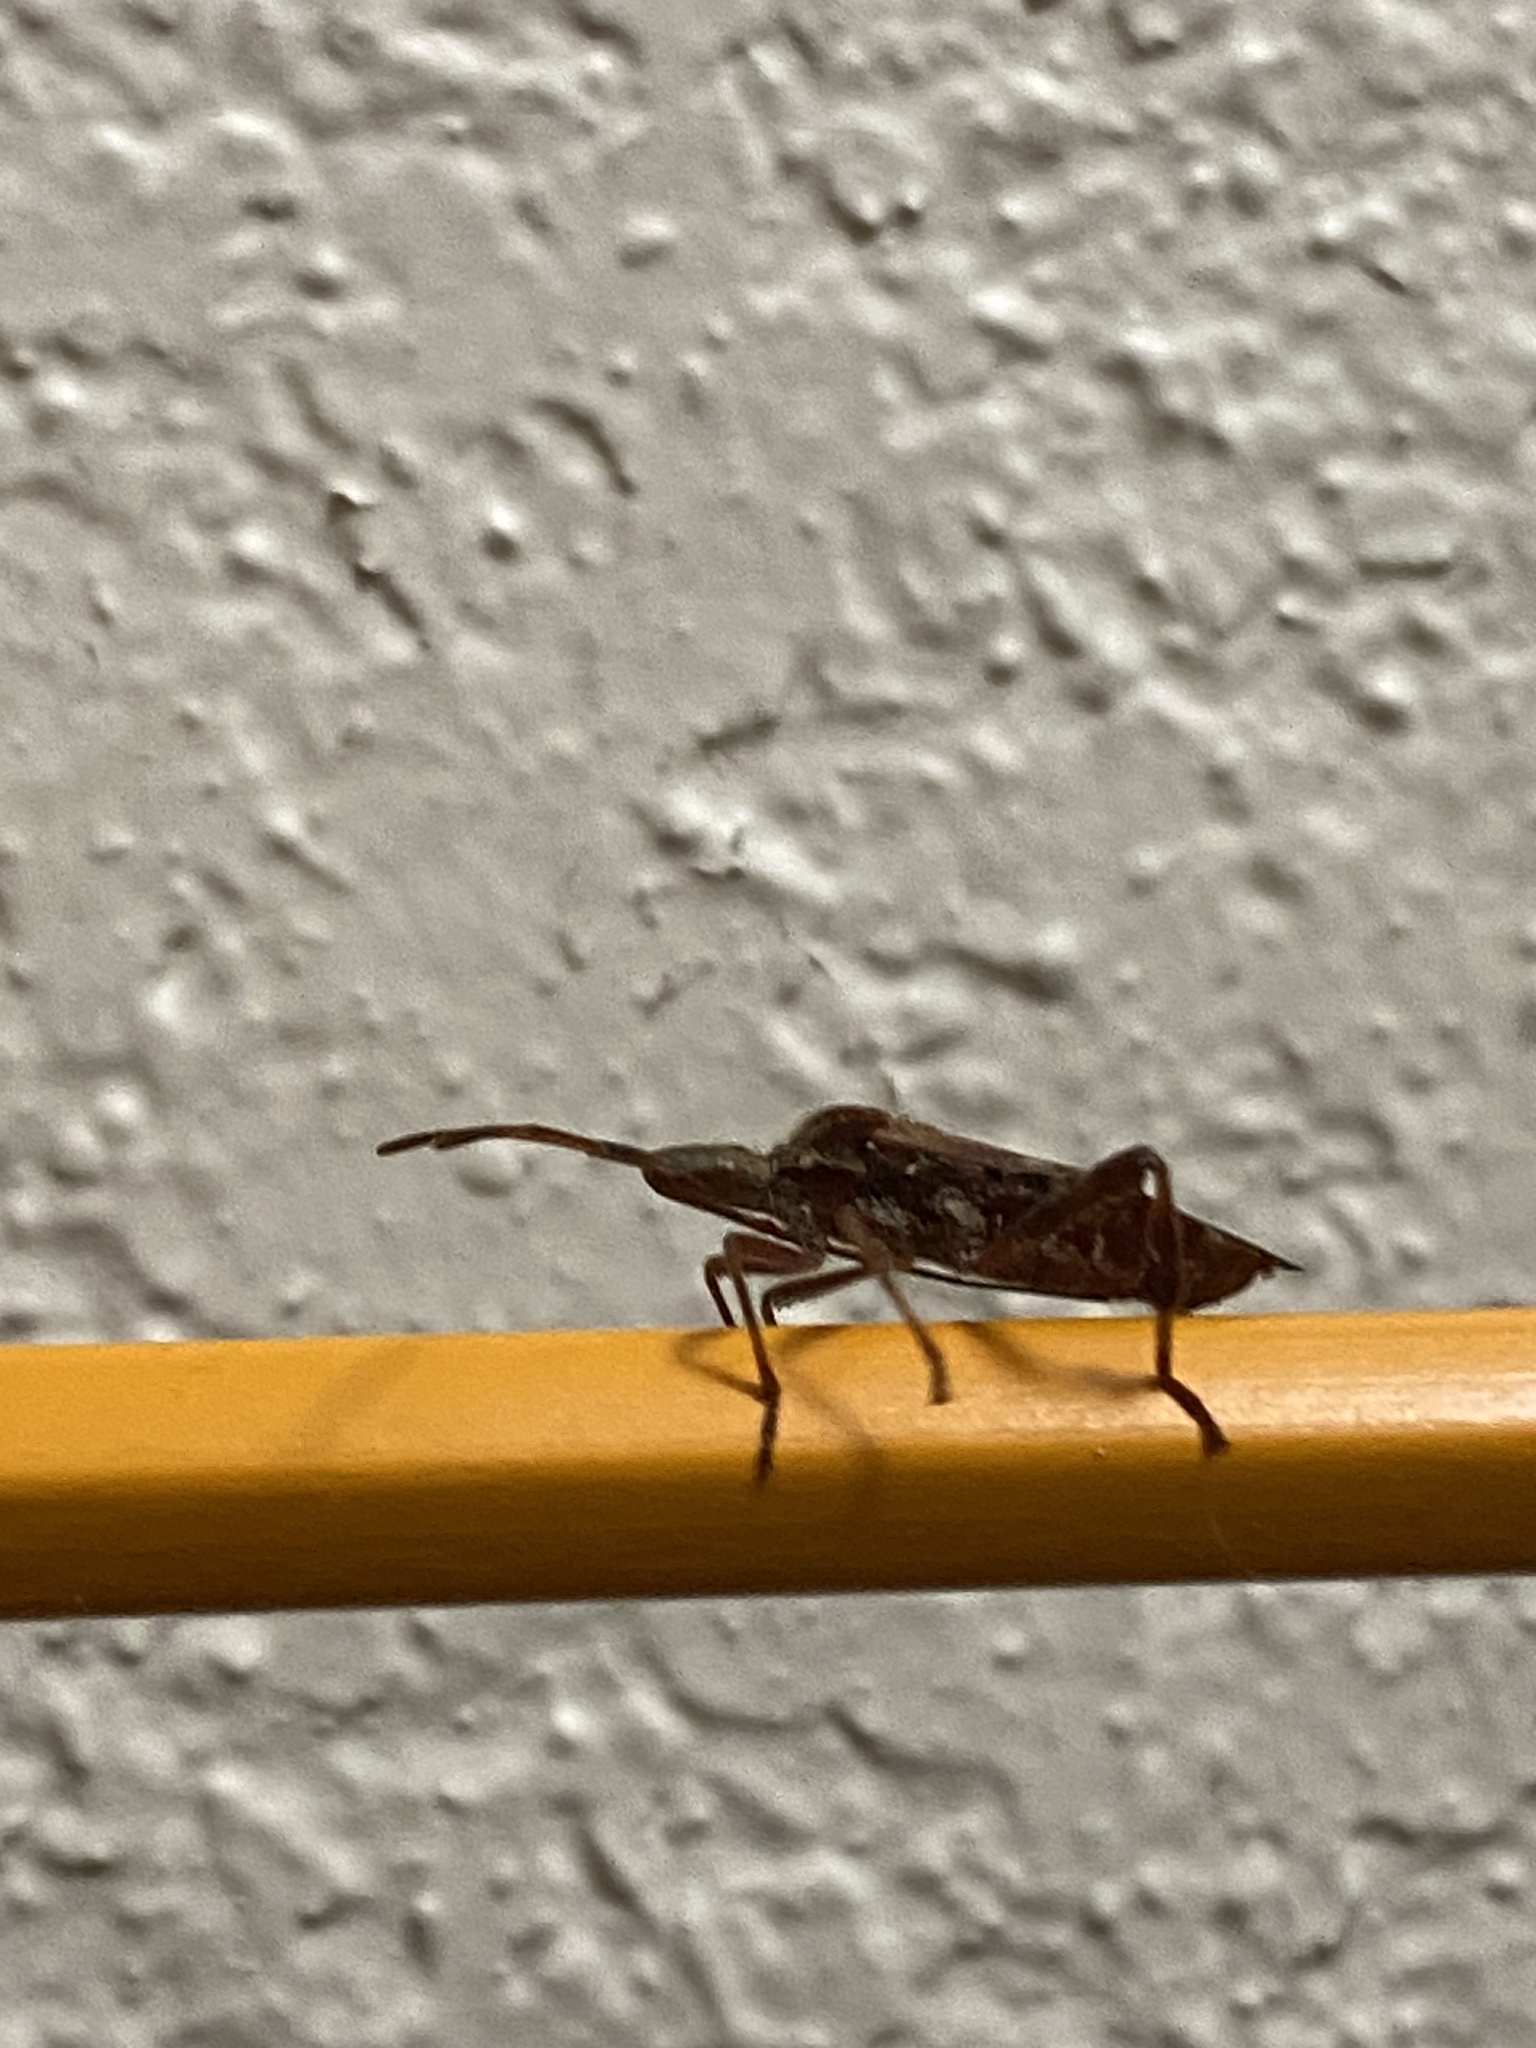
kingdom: Animalia
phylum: Arthropoda
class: Insecta
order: Hemiptera
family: Coreidae
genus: Leptoglossus
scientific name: Leptoglossus occidentalis
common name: Western conifer-seed bug
